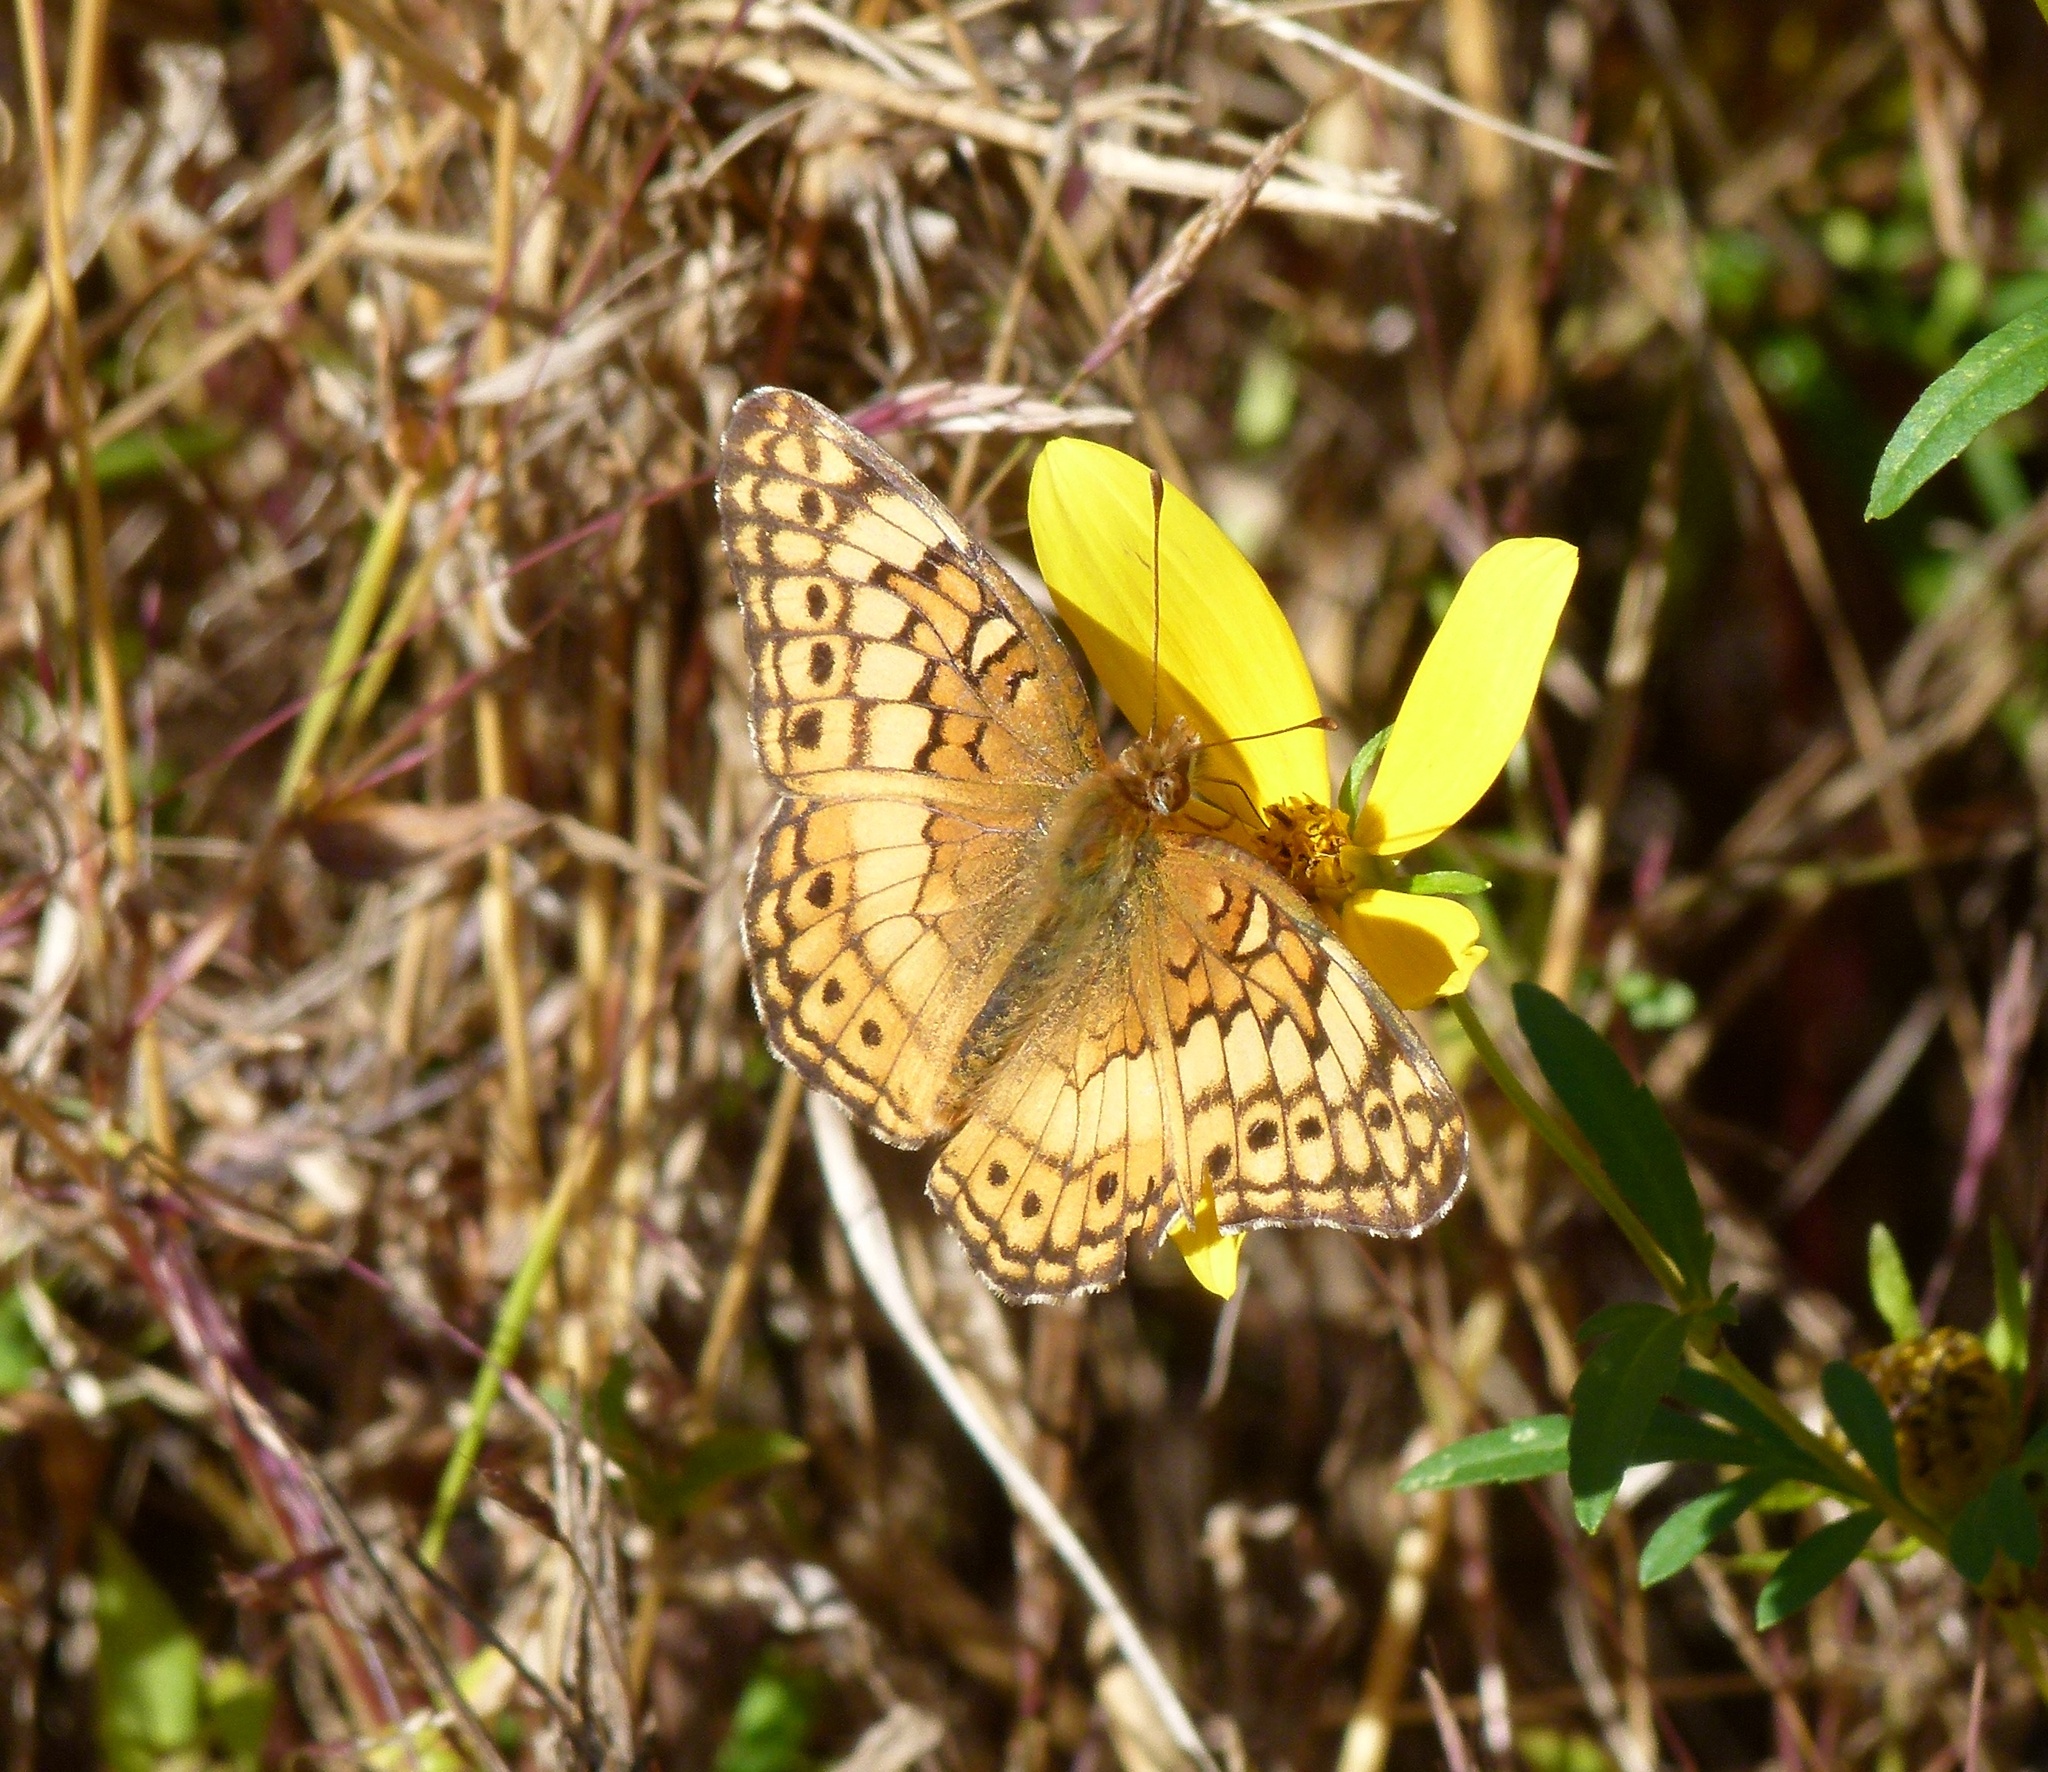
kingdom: Animalia
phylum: Arthropoda
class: Insecta
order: Lepidoptera
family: Nymphalidae
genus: Euptoieta
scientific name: Euptoieta claudia
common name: Variegated fritillary
